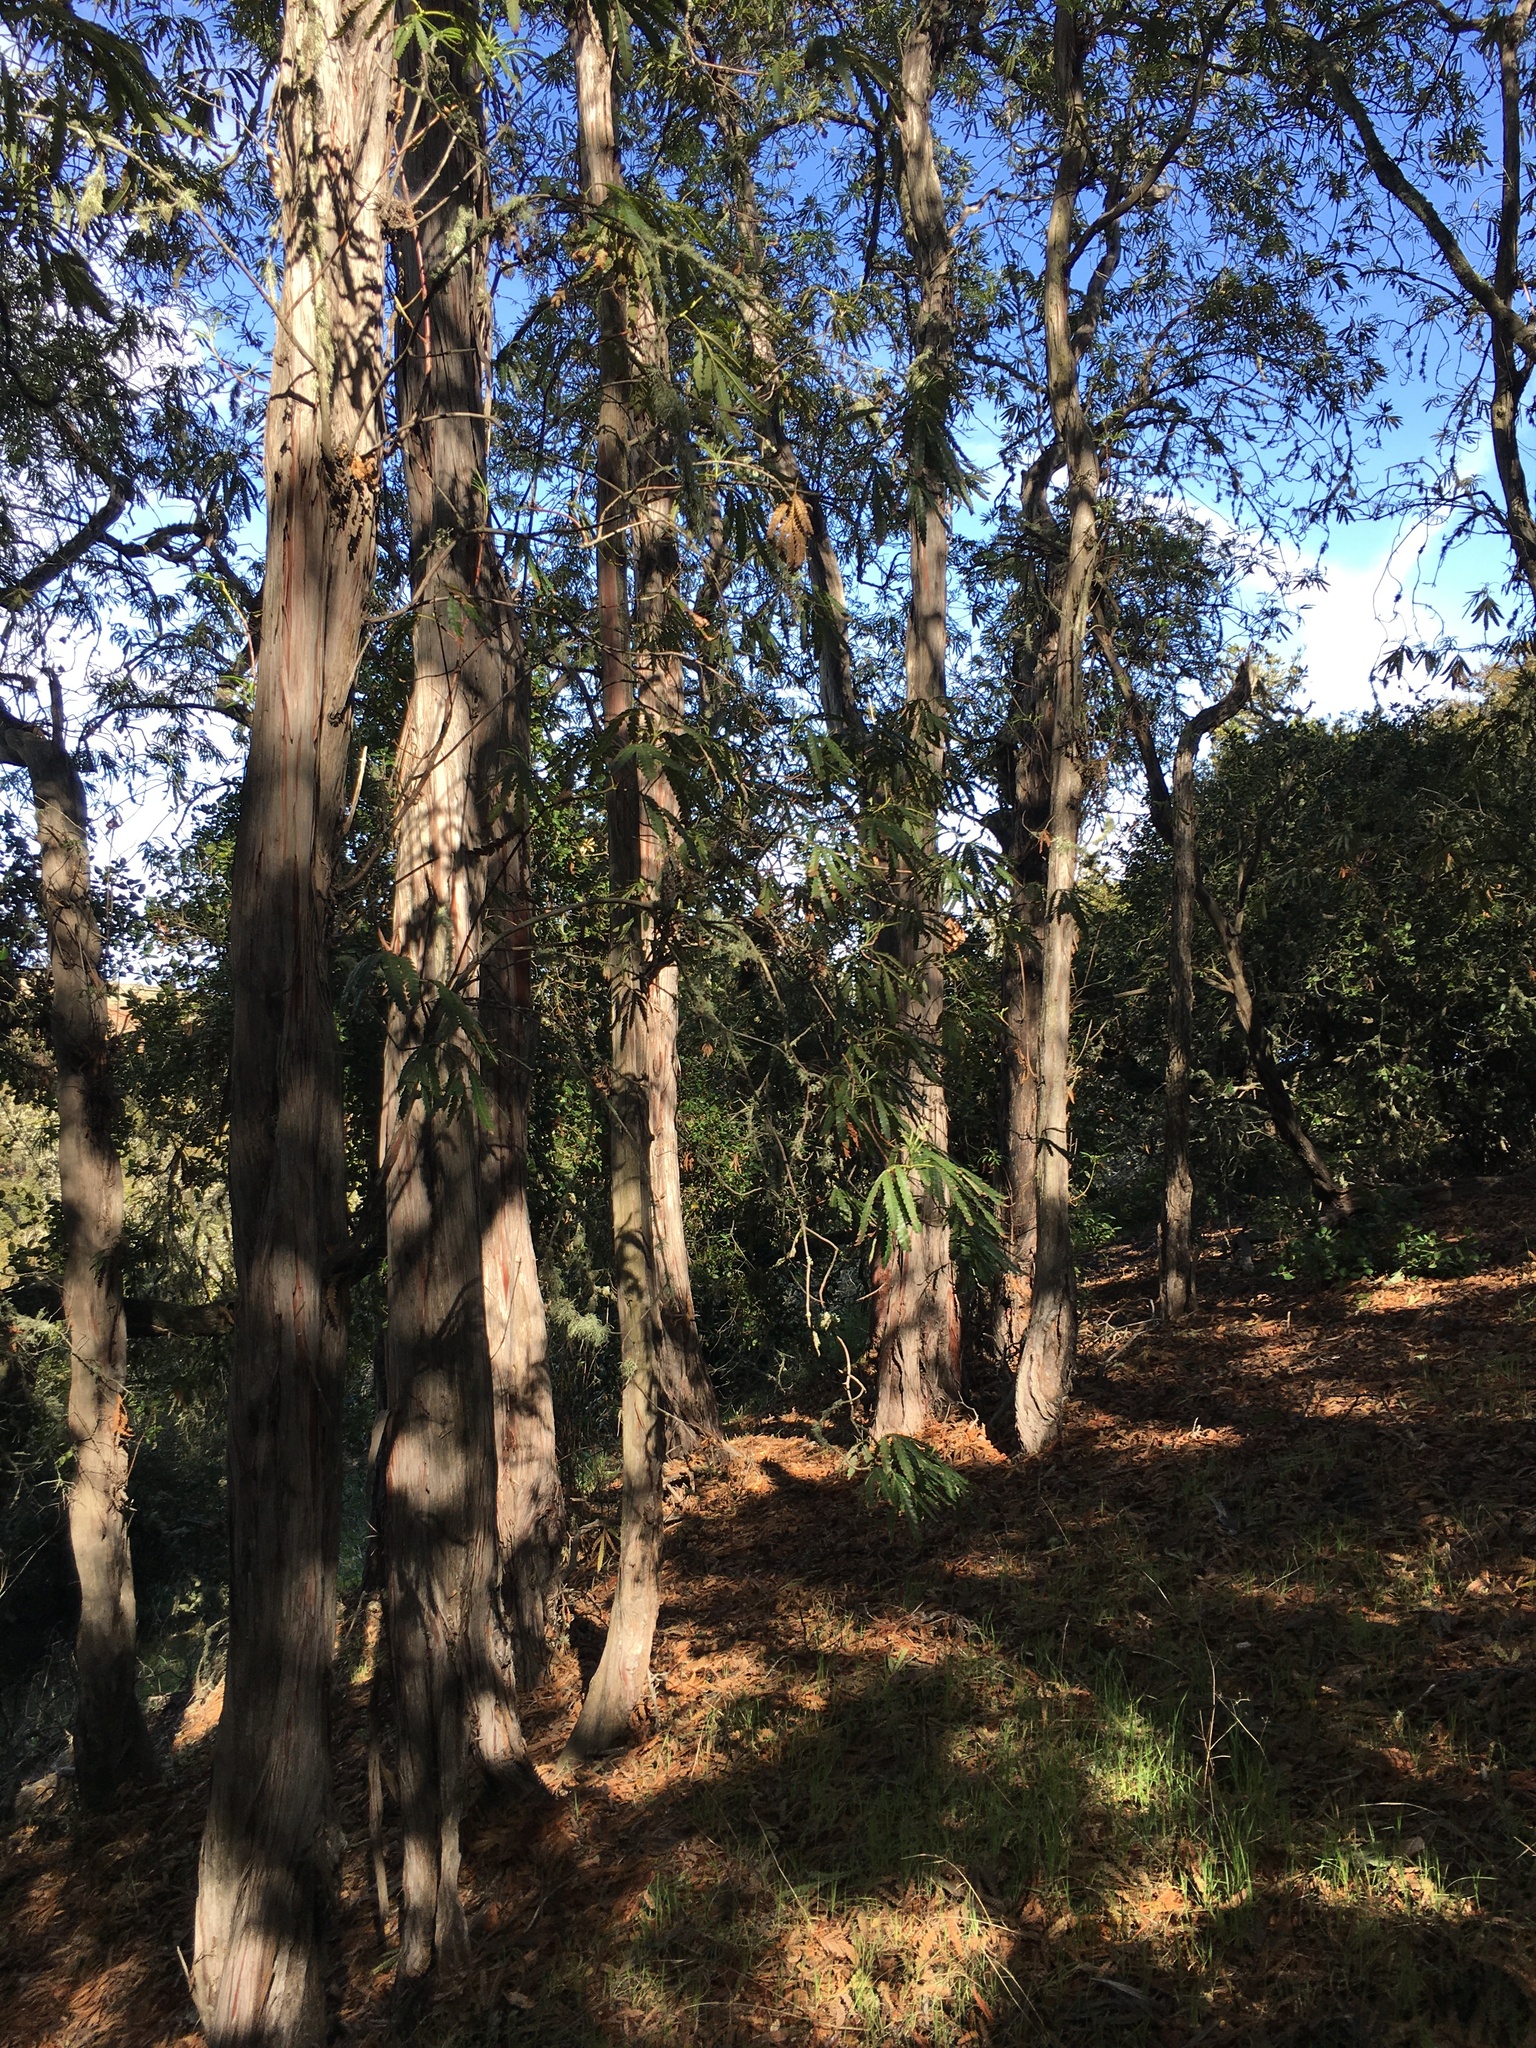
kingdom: Plantae
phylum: Tracheophyta
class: Magnoliopsida
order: Rosales
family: Rosaceae
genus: Lyonothamnus
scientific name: Lyonothamnus floribundus
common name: Catalina ironwood
